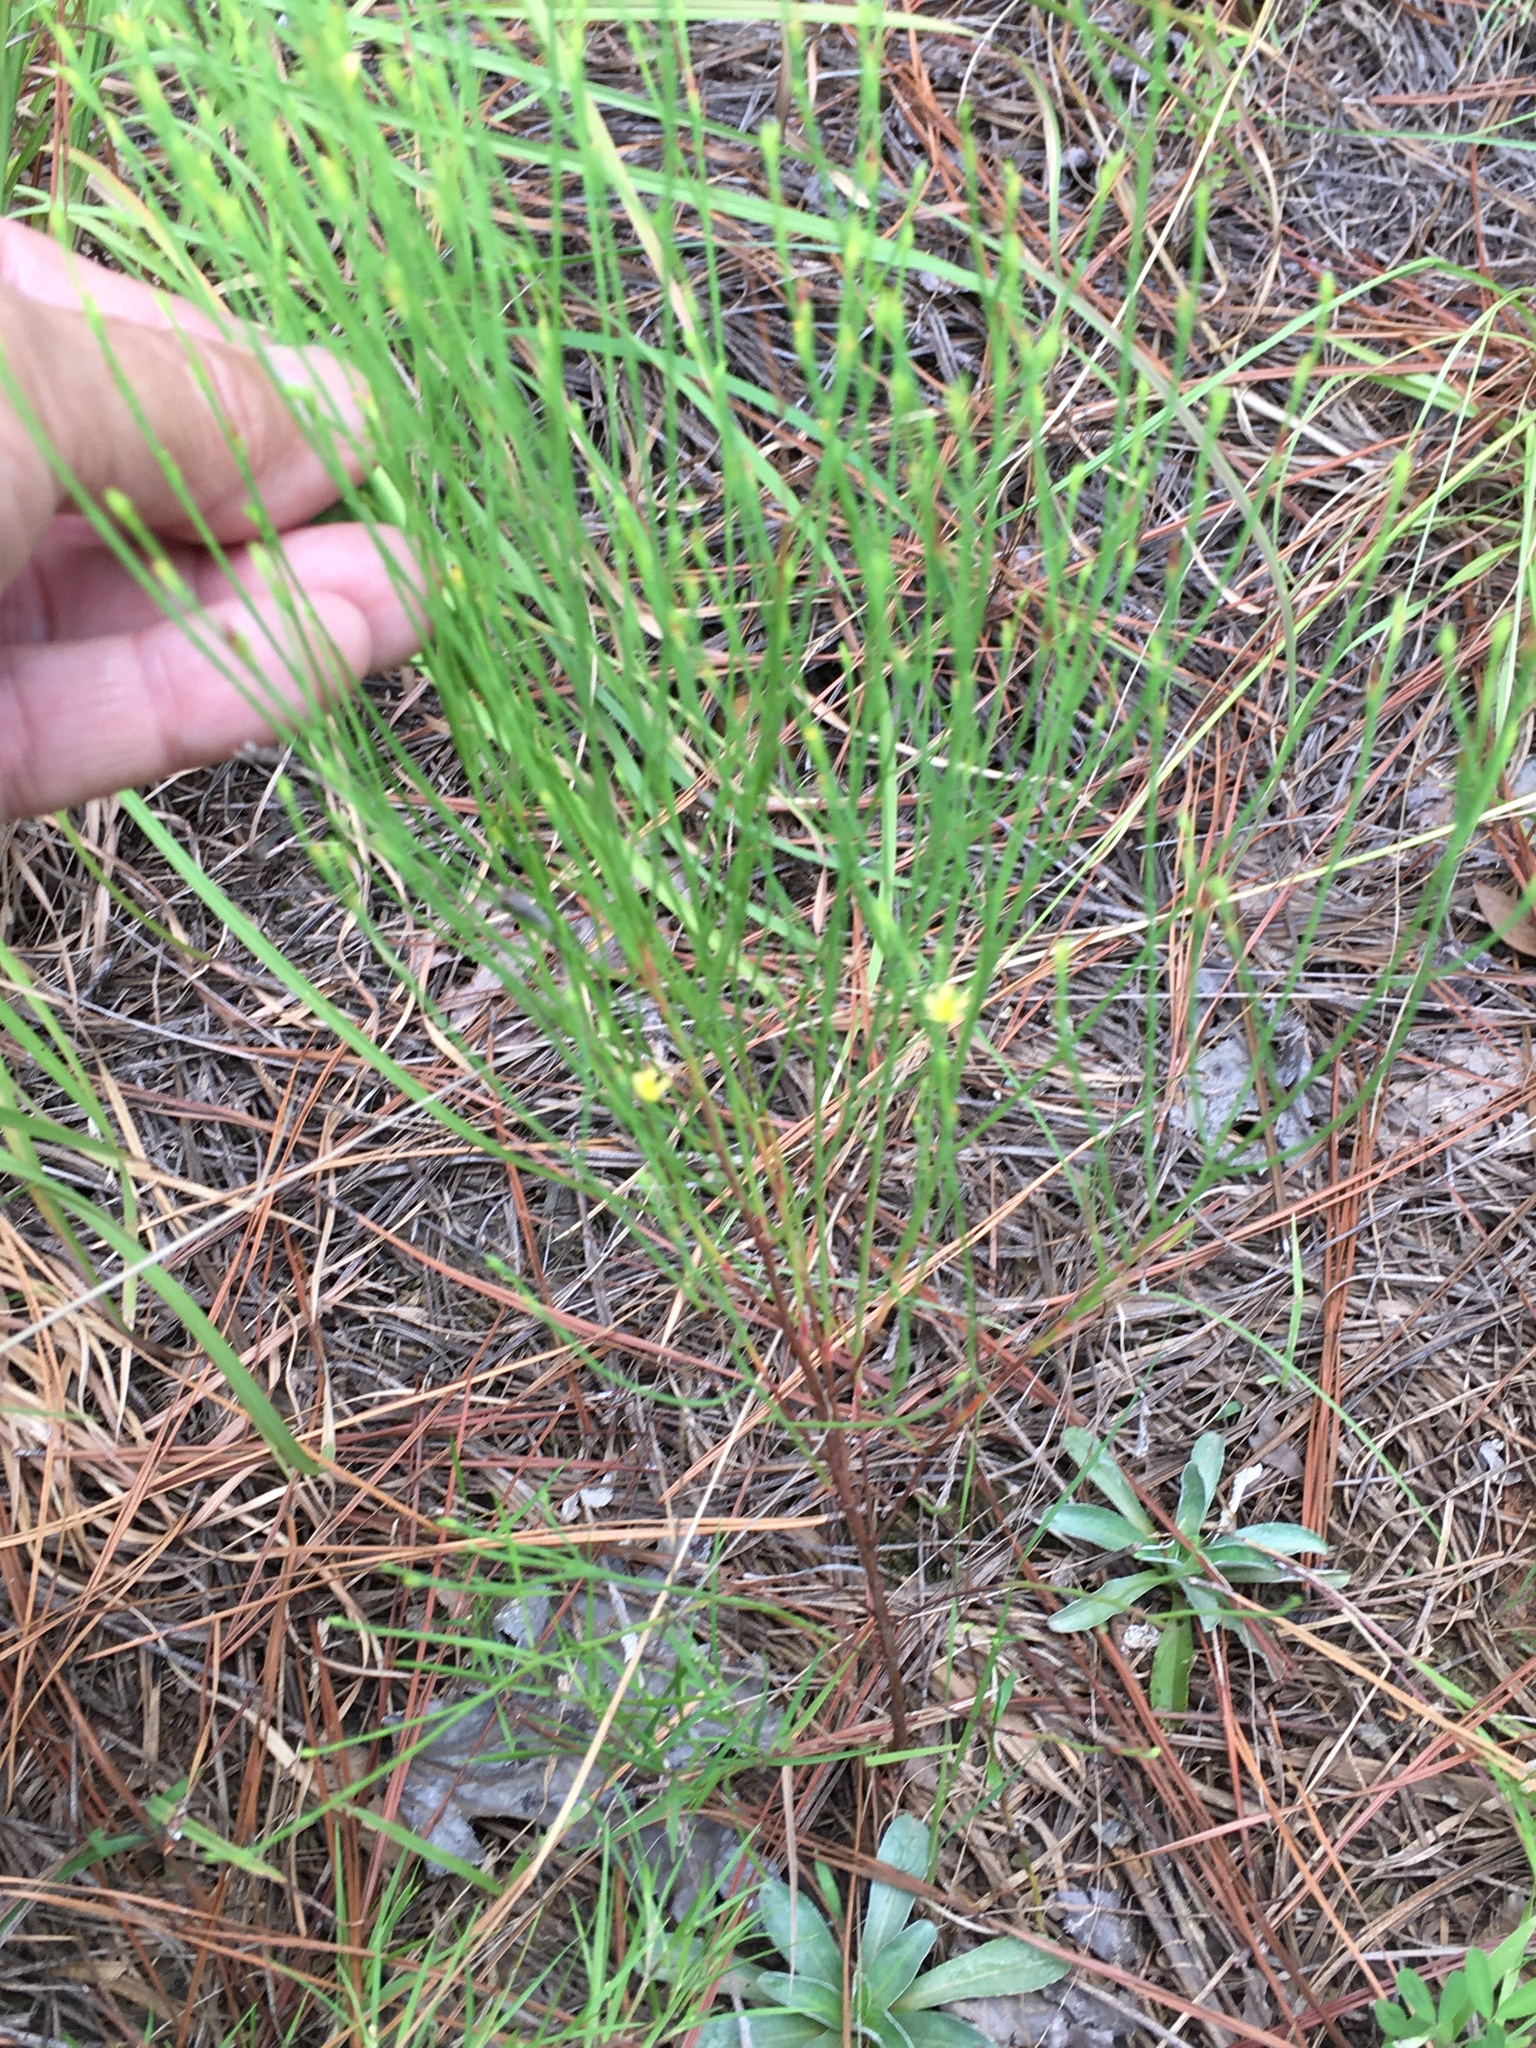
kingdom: Plantae
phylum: Tracheophyta
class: Magnoliopsida
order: Malpighiales
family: Hypericaceae
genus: Hypericum
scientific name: Hypericum gentianoides
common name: Gentian-leaved st. john's-wort
